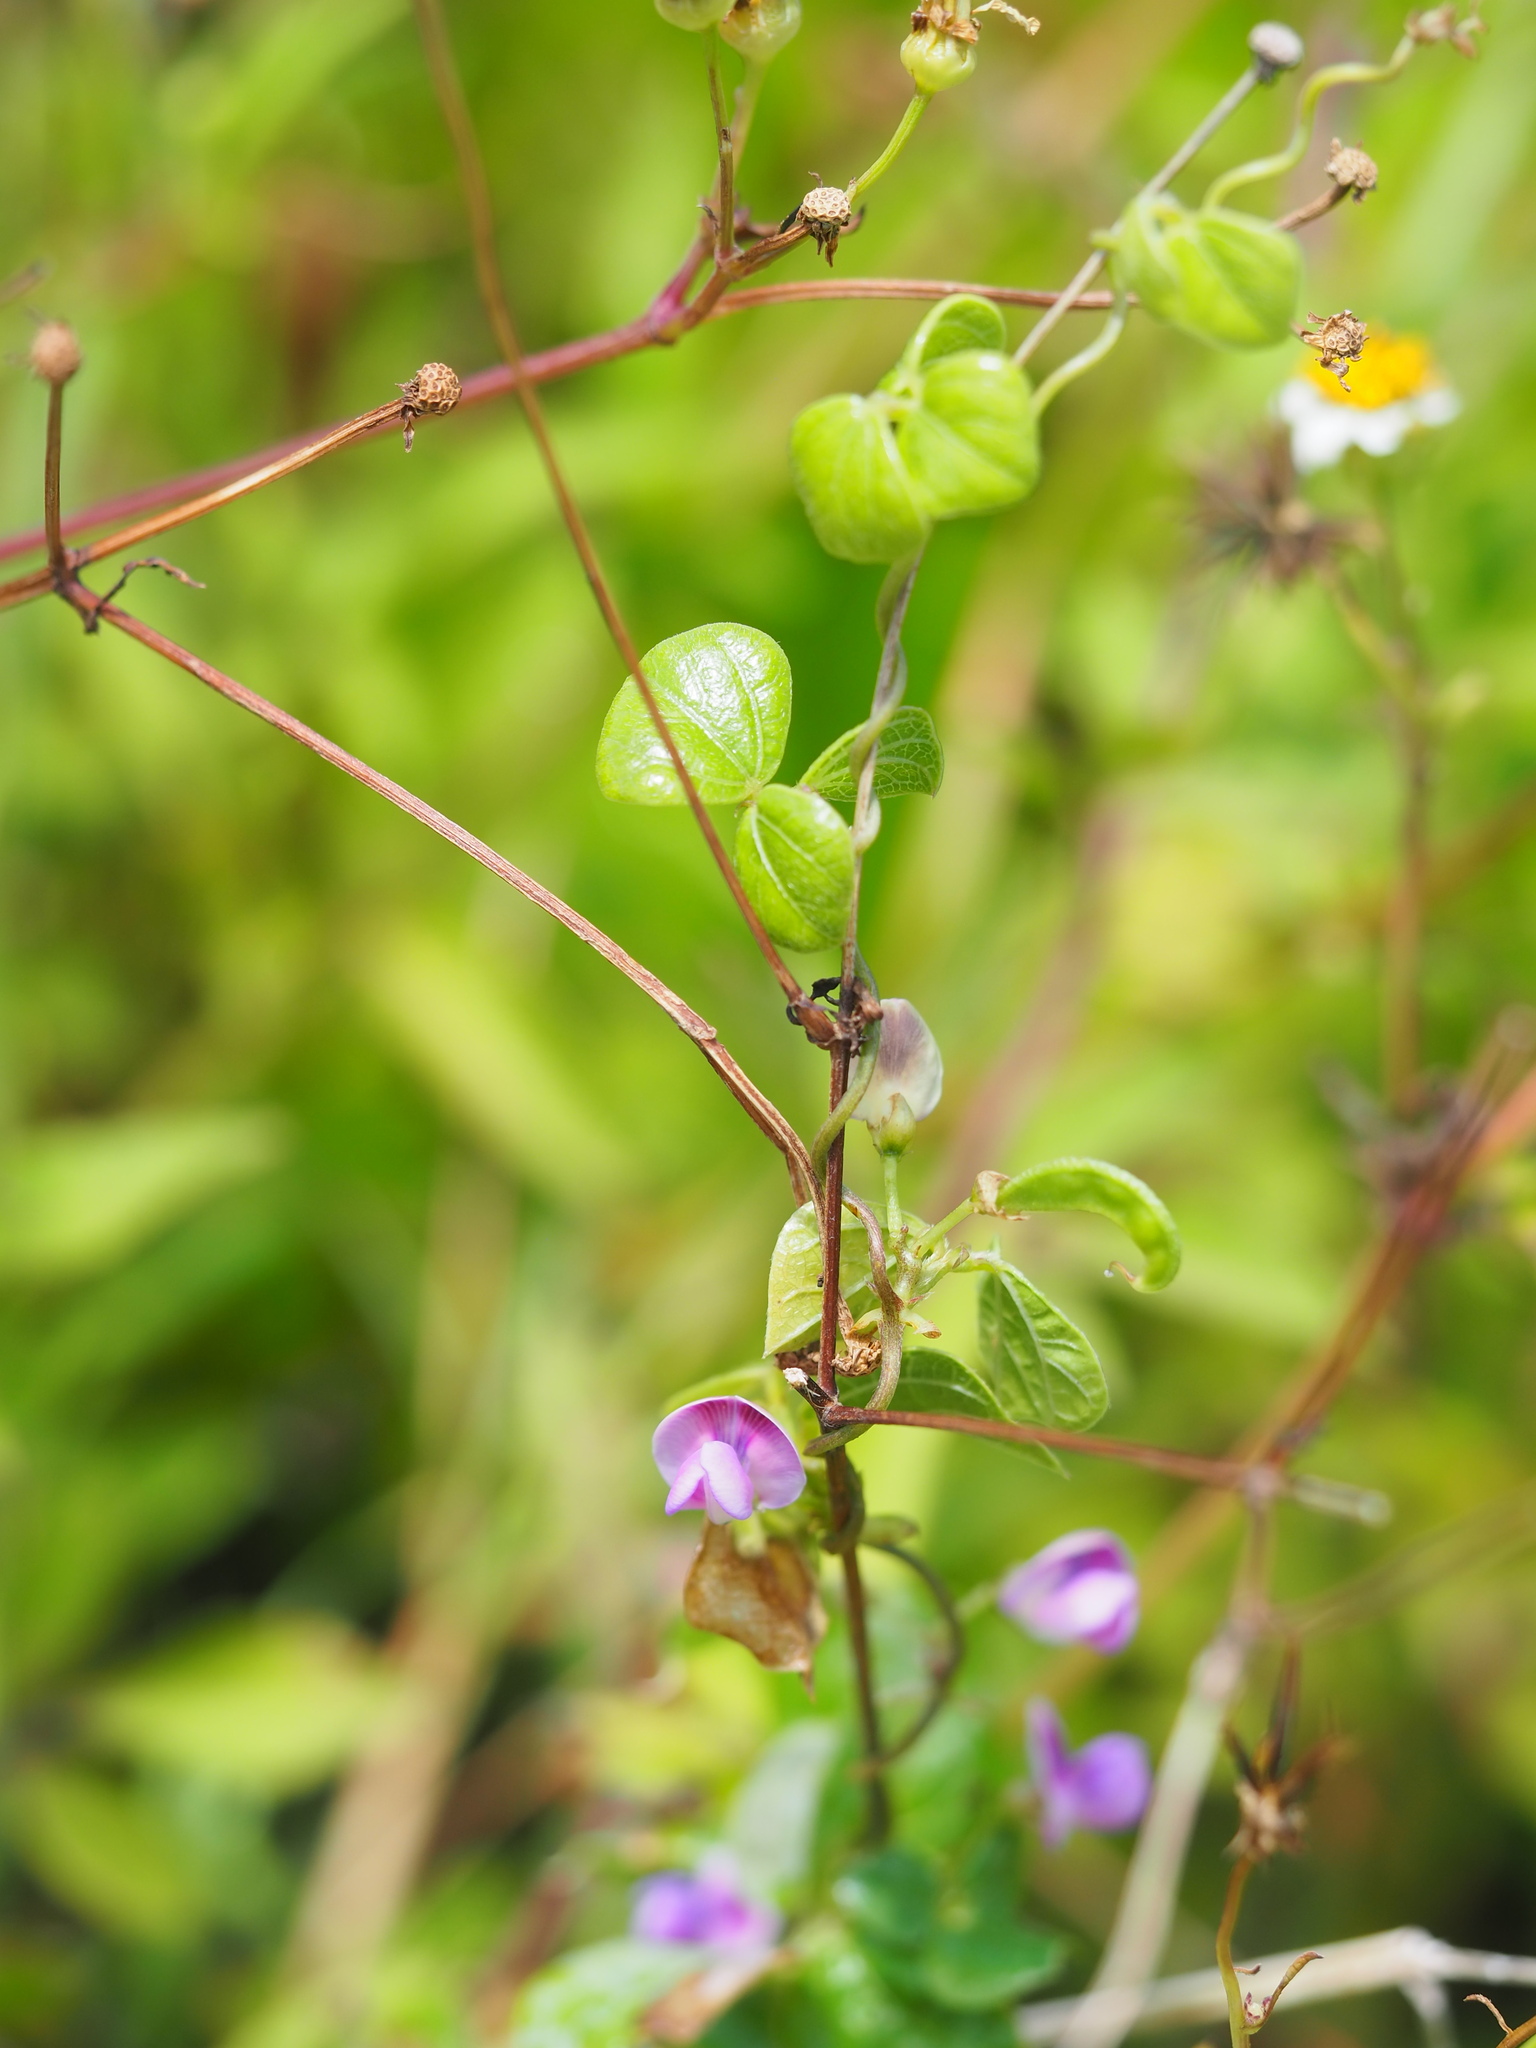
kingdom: Plantae
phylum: Tracheophyta
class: Magnoliopsida
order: Fabales
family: Fabaceae
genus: Dolichos
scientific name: Dolichos trilobus
